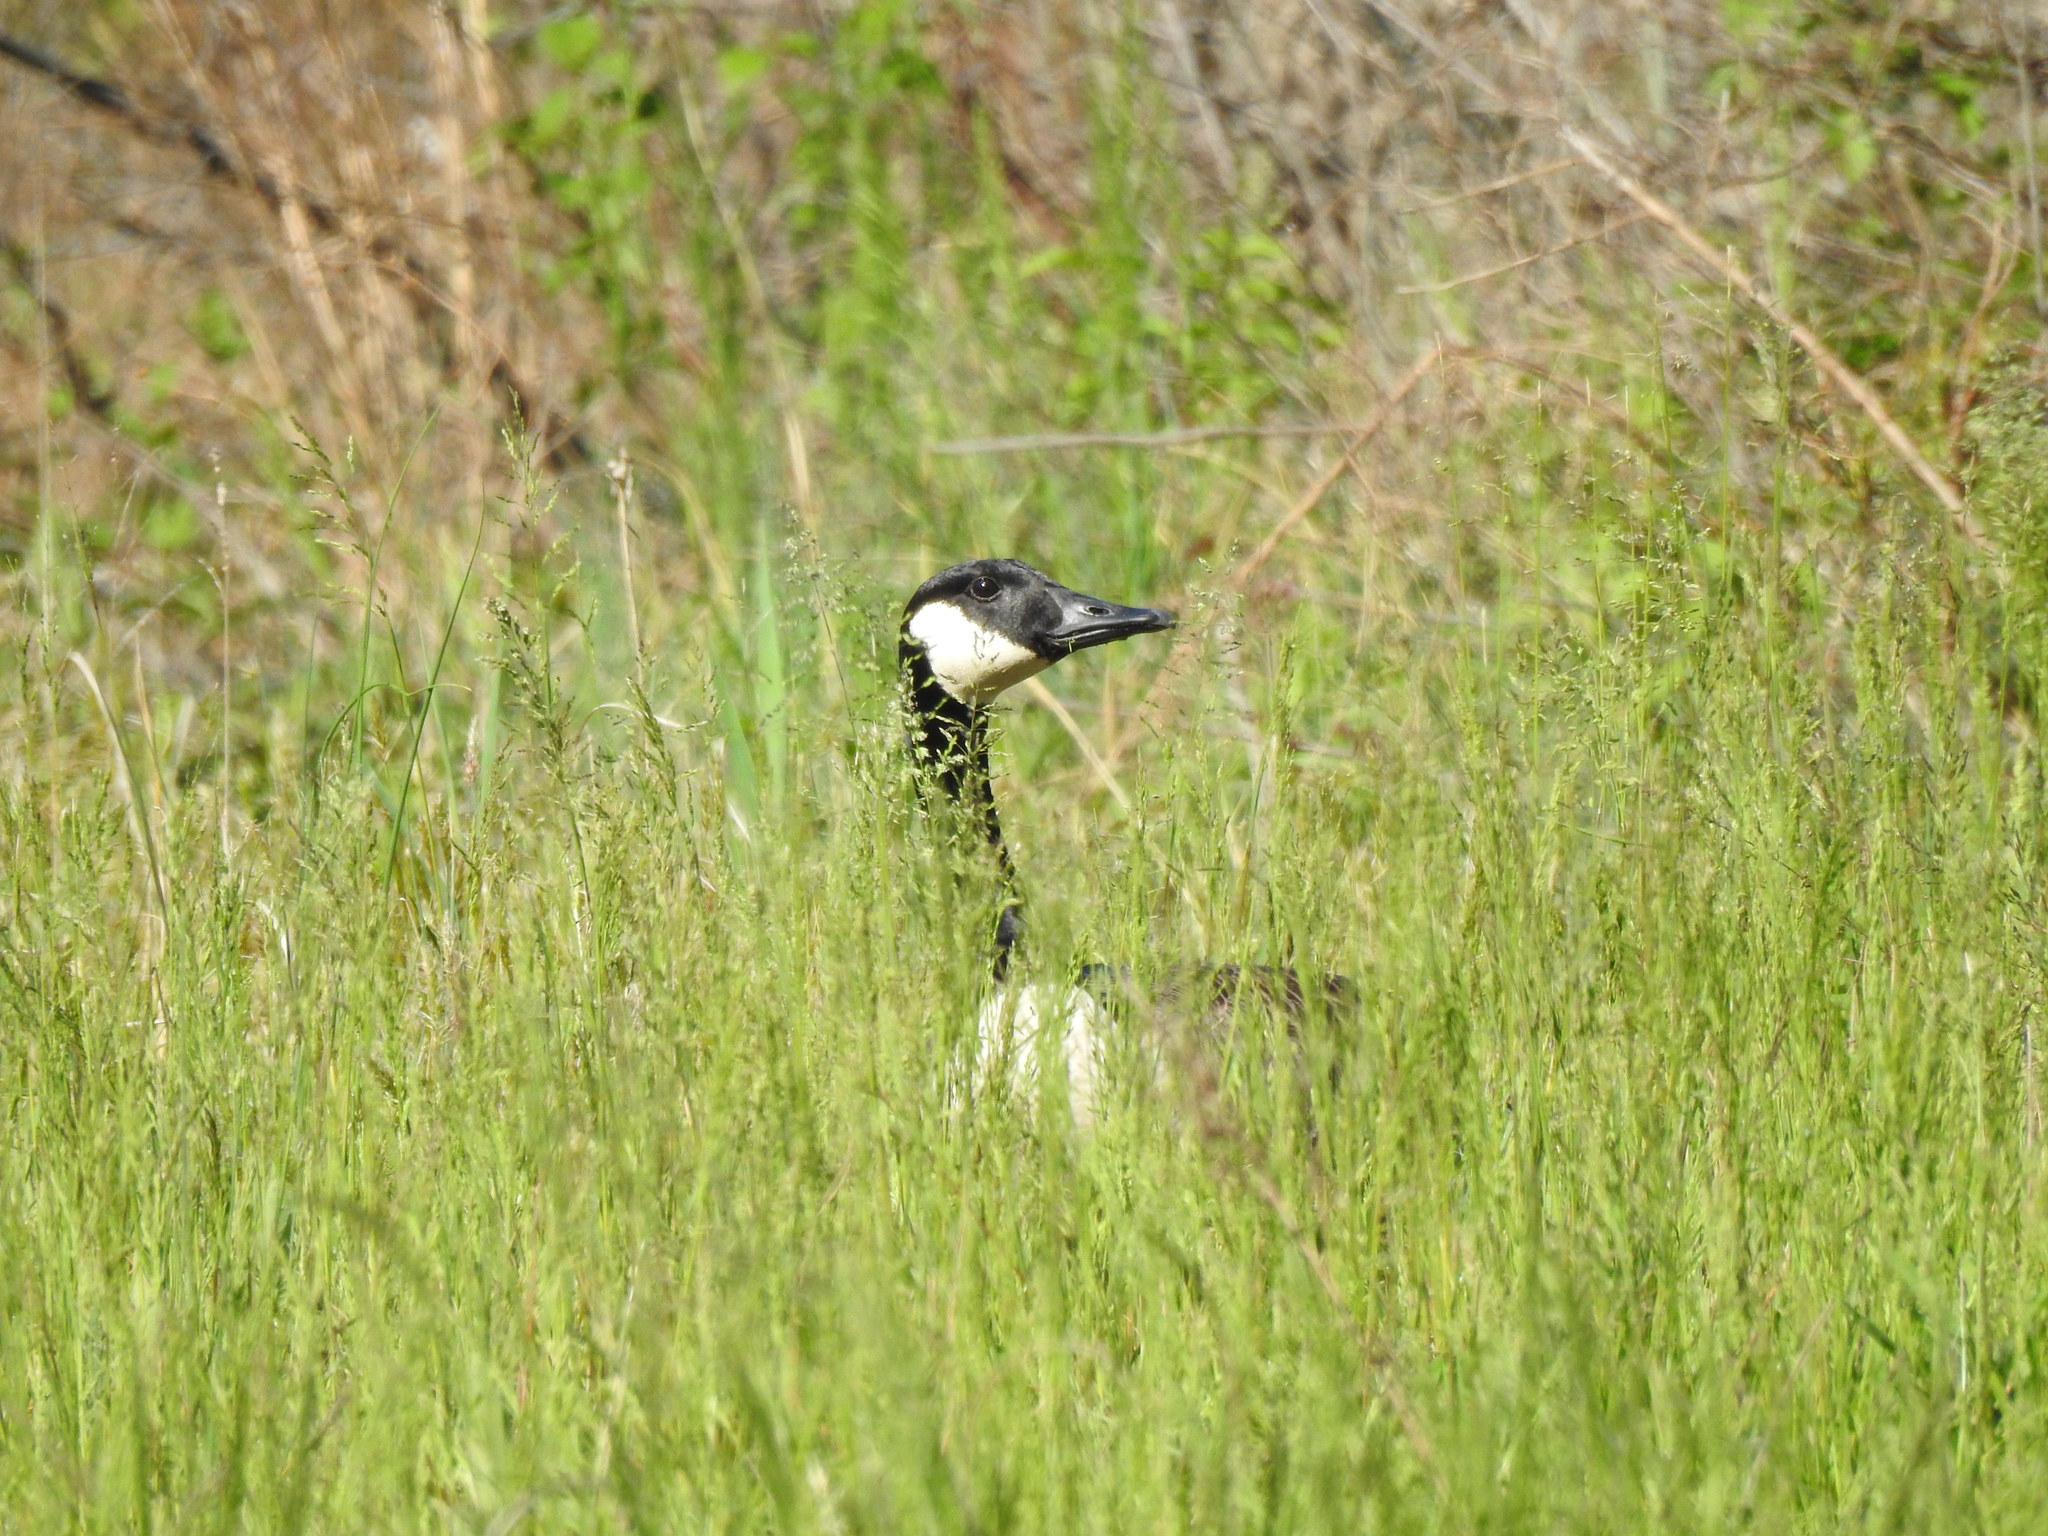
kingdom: Animalia
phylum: Chordata
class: Aves
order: Anseriformes
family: Anatidae
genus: Branta
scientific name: Branta canadensis
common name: Canada goose
